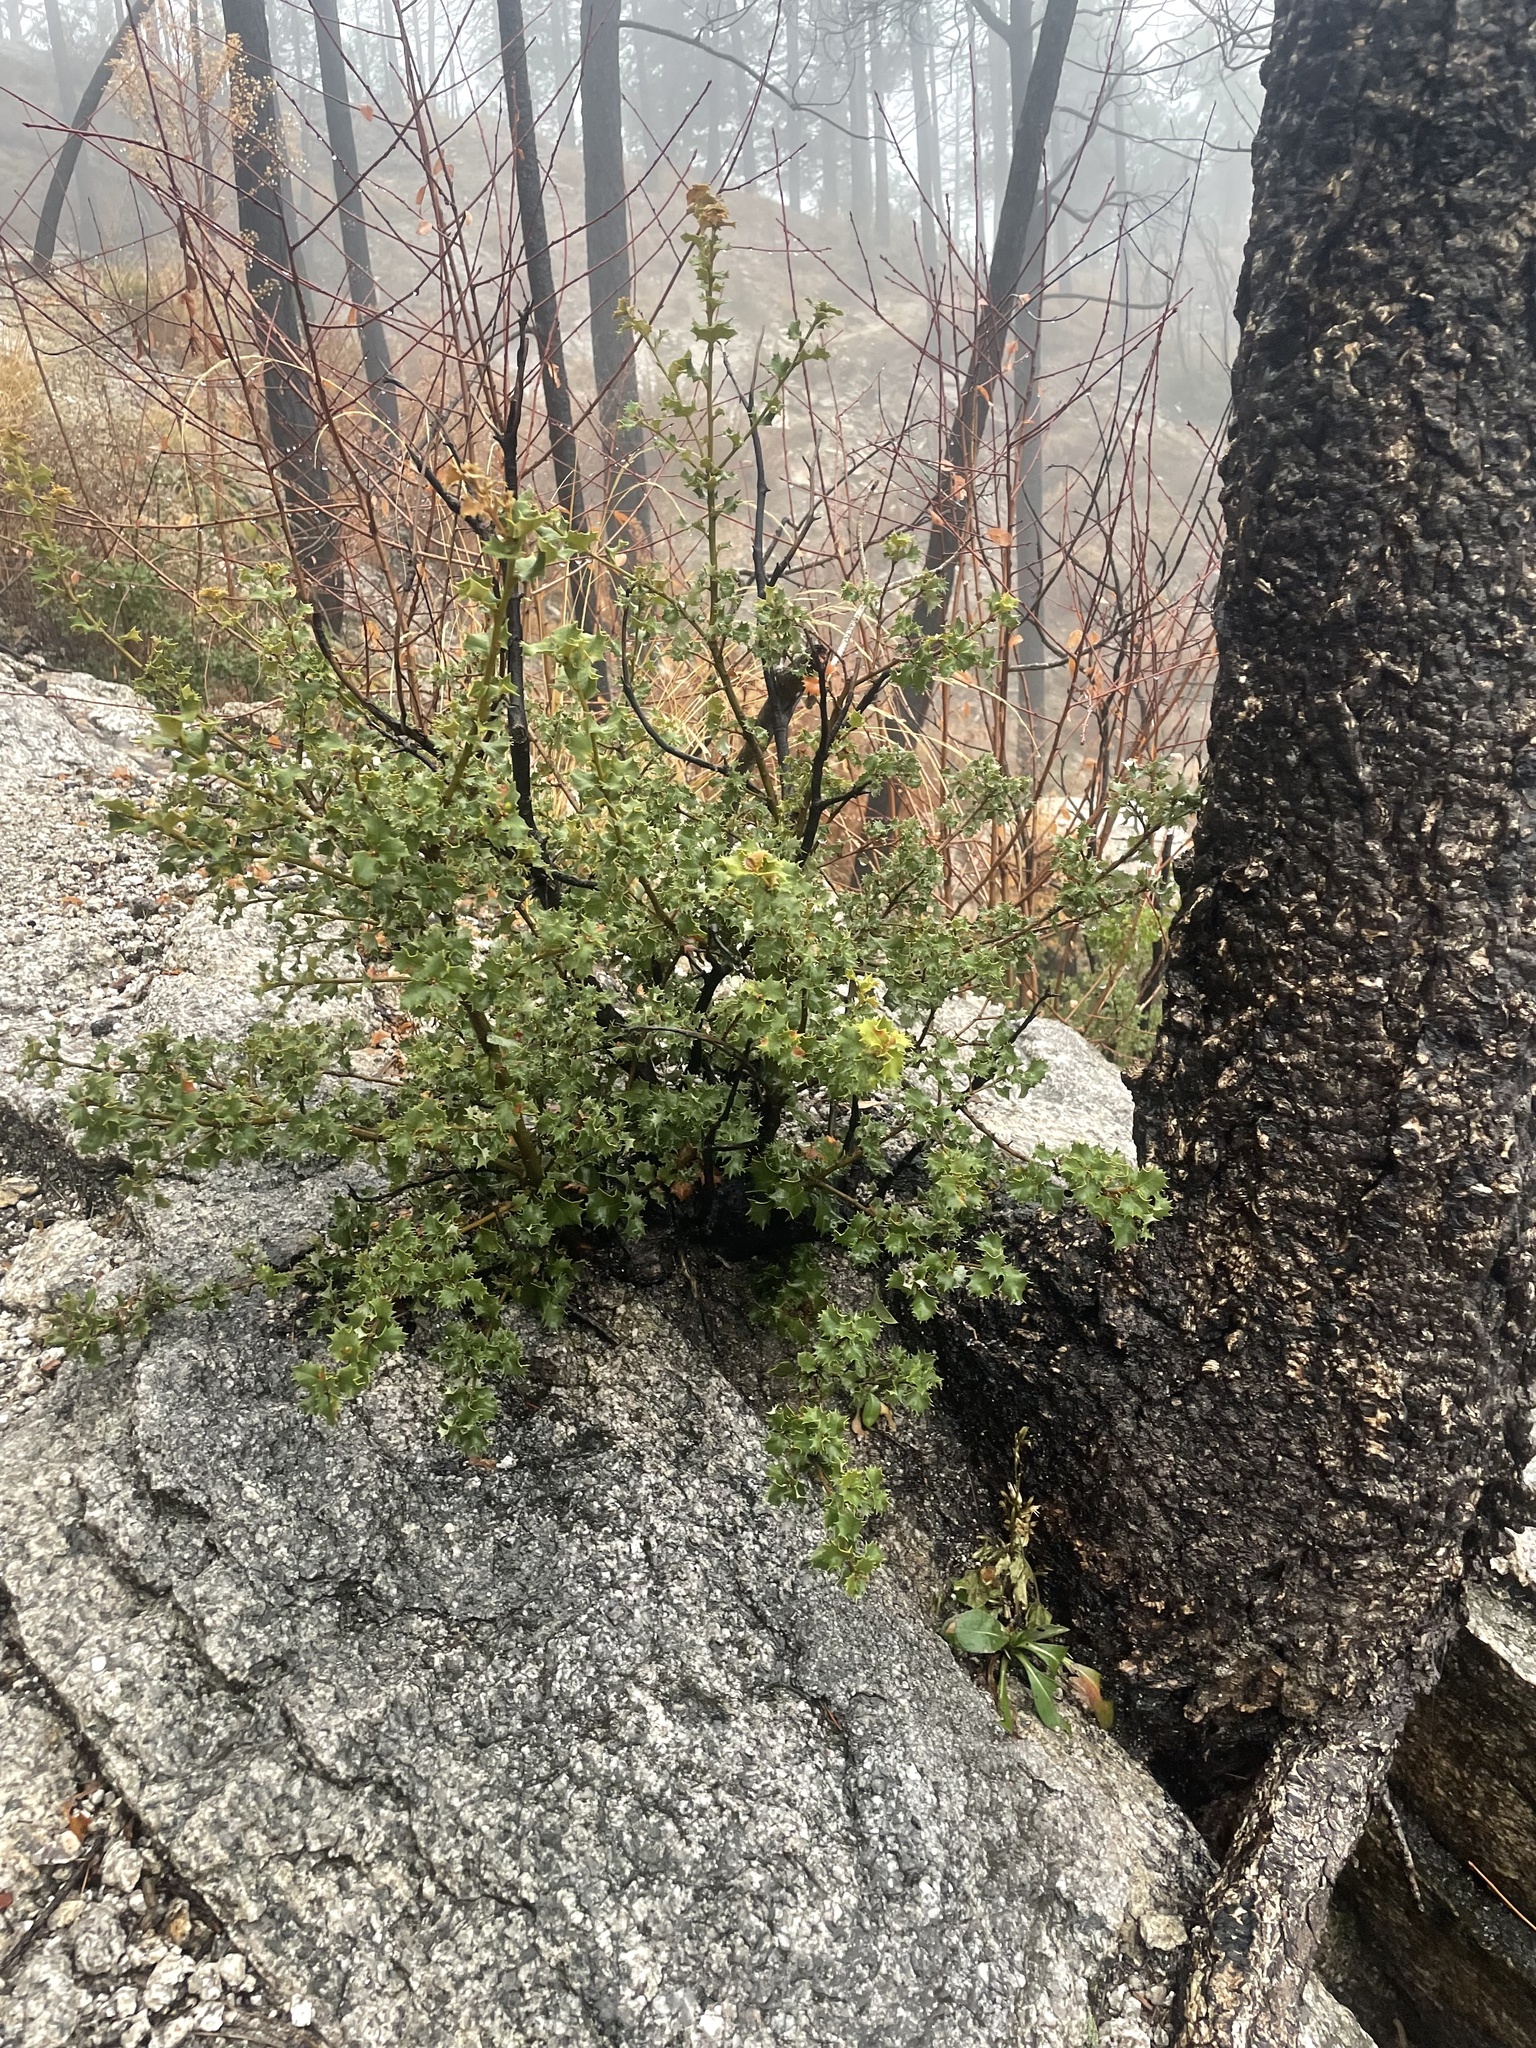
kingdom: Plantae
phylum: Tracheophyta
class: Magnoliopsida
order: Fagales
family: Fagaceae
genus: Quercus
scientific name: Quercus chrysolepis
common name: Canyon live oak
